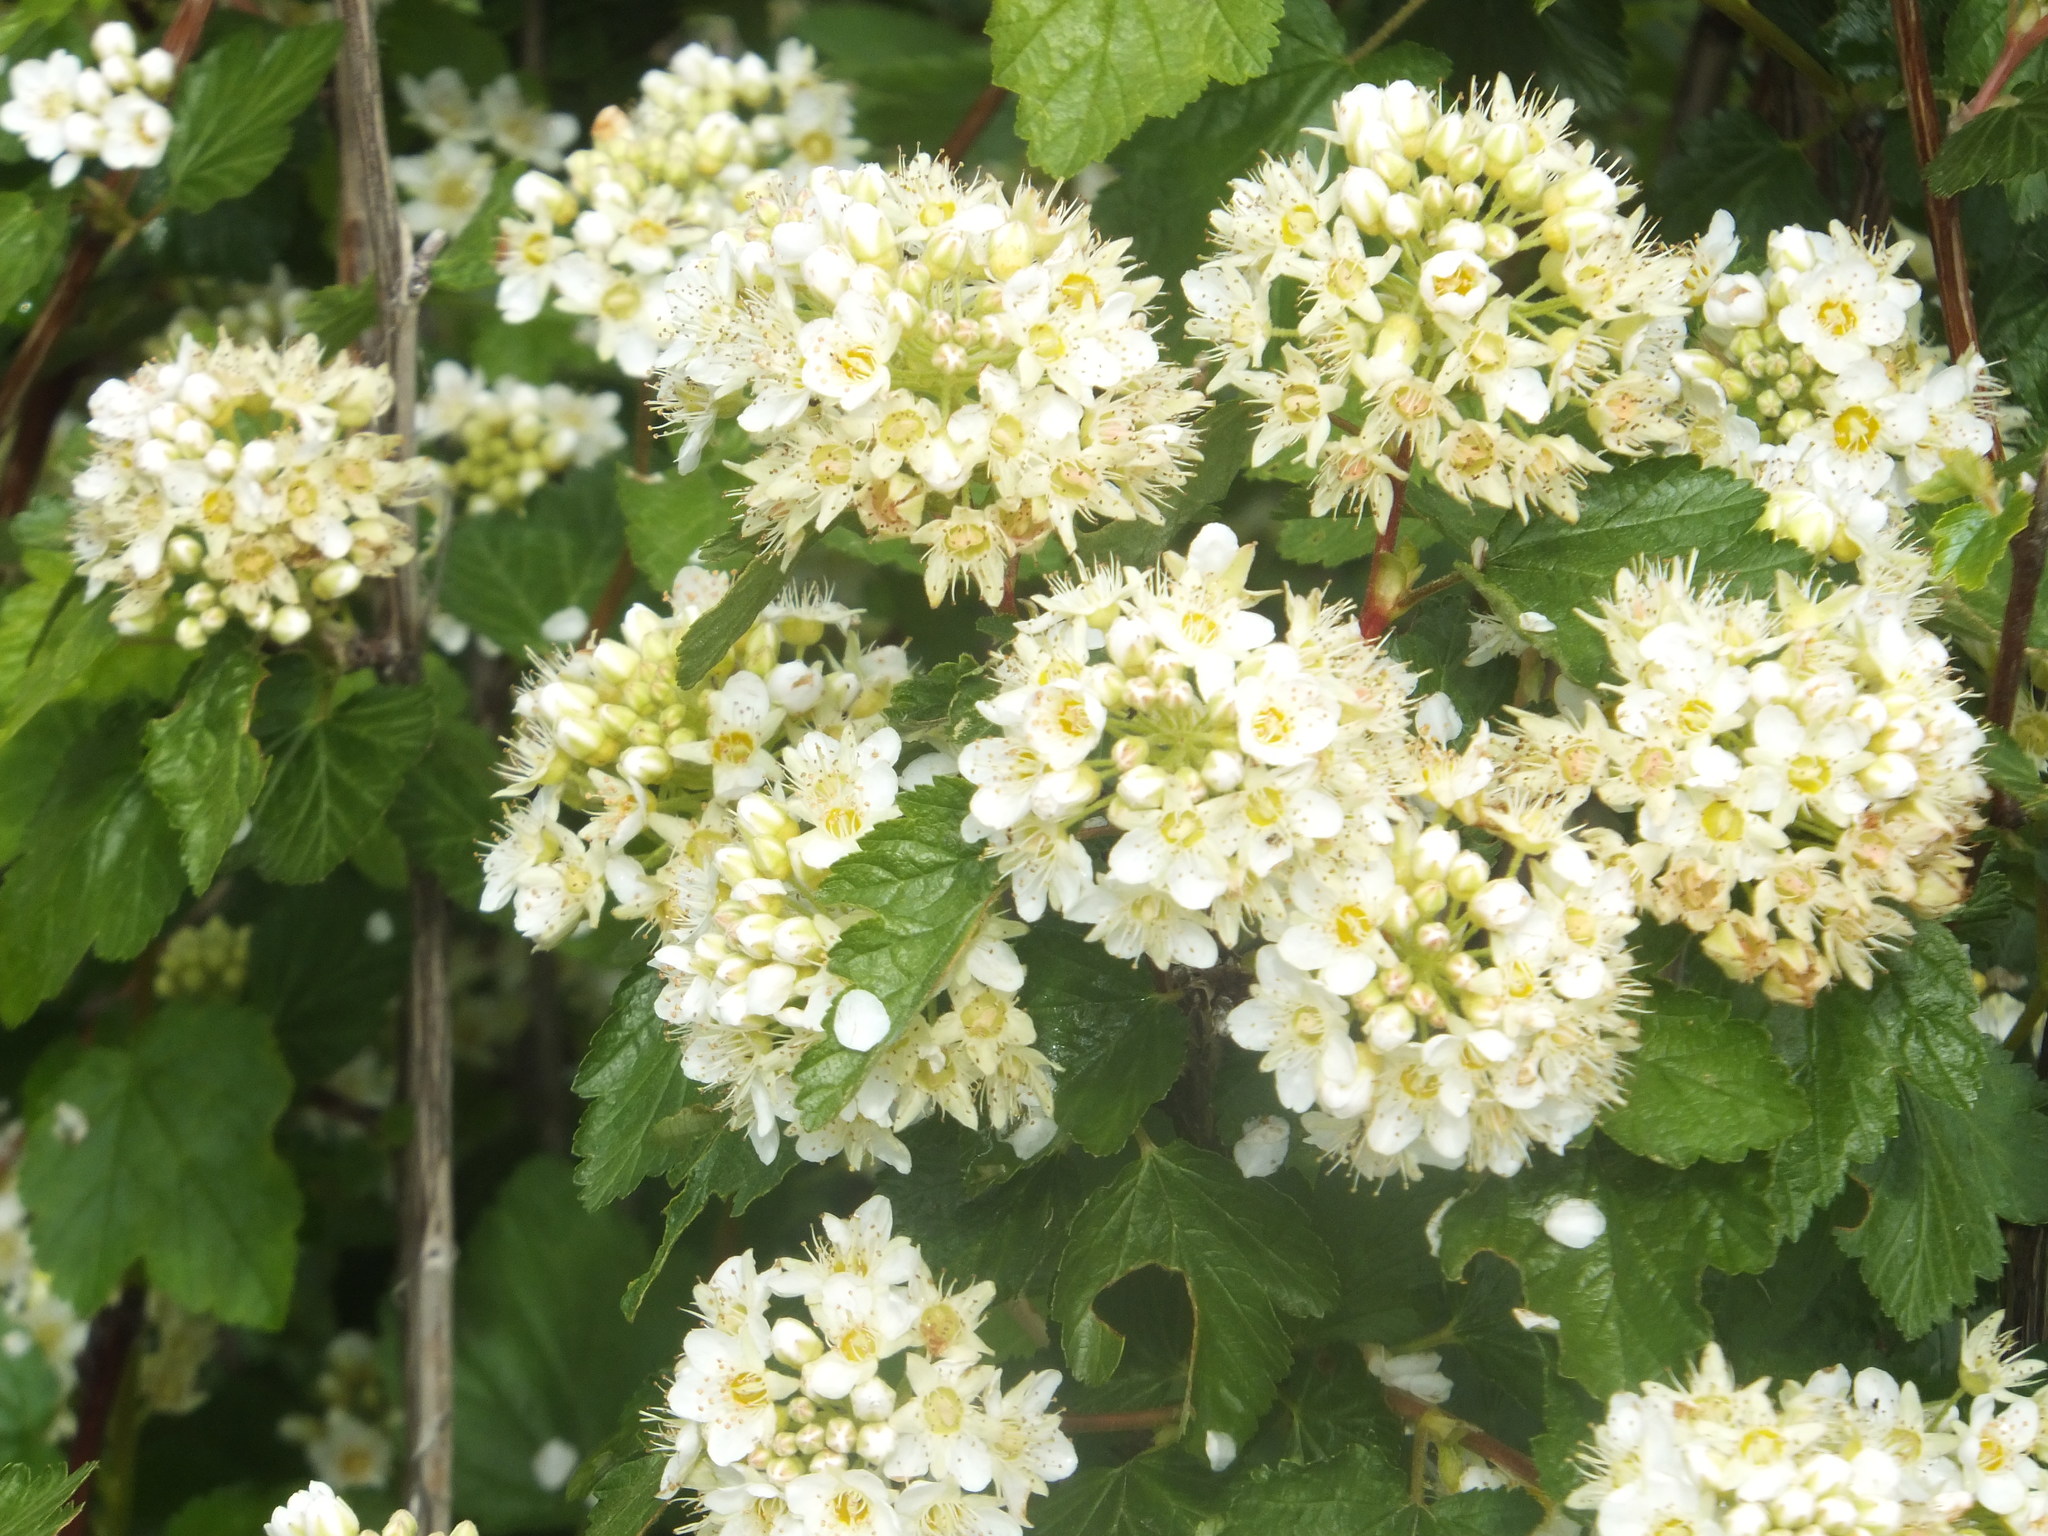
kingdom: Plantae
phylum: Tracheophyta
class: Magnoliopsida
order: Rosales
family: Rosaceae
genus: Physocarpus
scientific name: Physocarpus malvaceus
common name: Mallow ninebark
